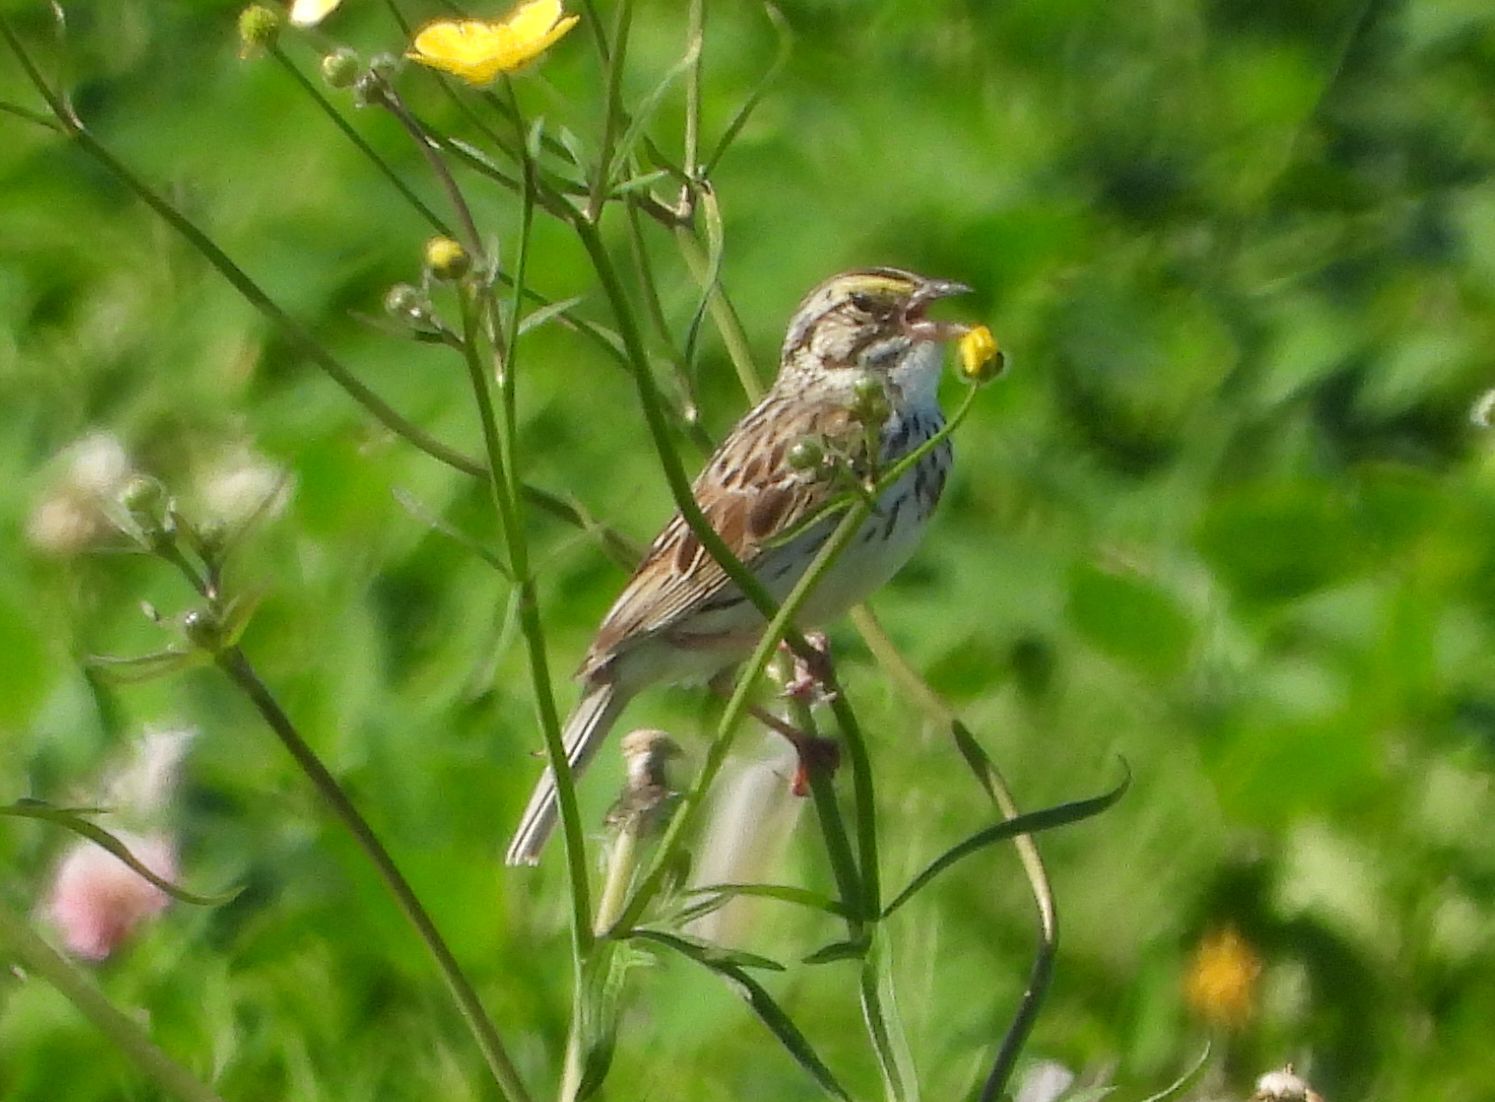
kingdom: Animalia
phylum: Chordata
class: Aves
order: Passeriformes
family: Passerellidae
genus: Passerculus
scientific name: Passerculus sandwichensis
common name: Savannah sparrow
